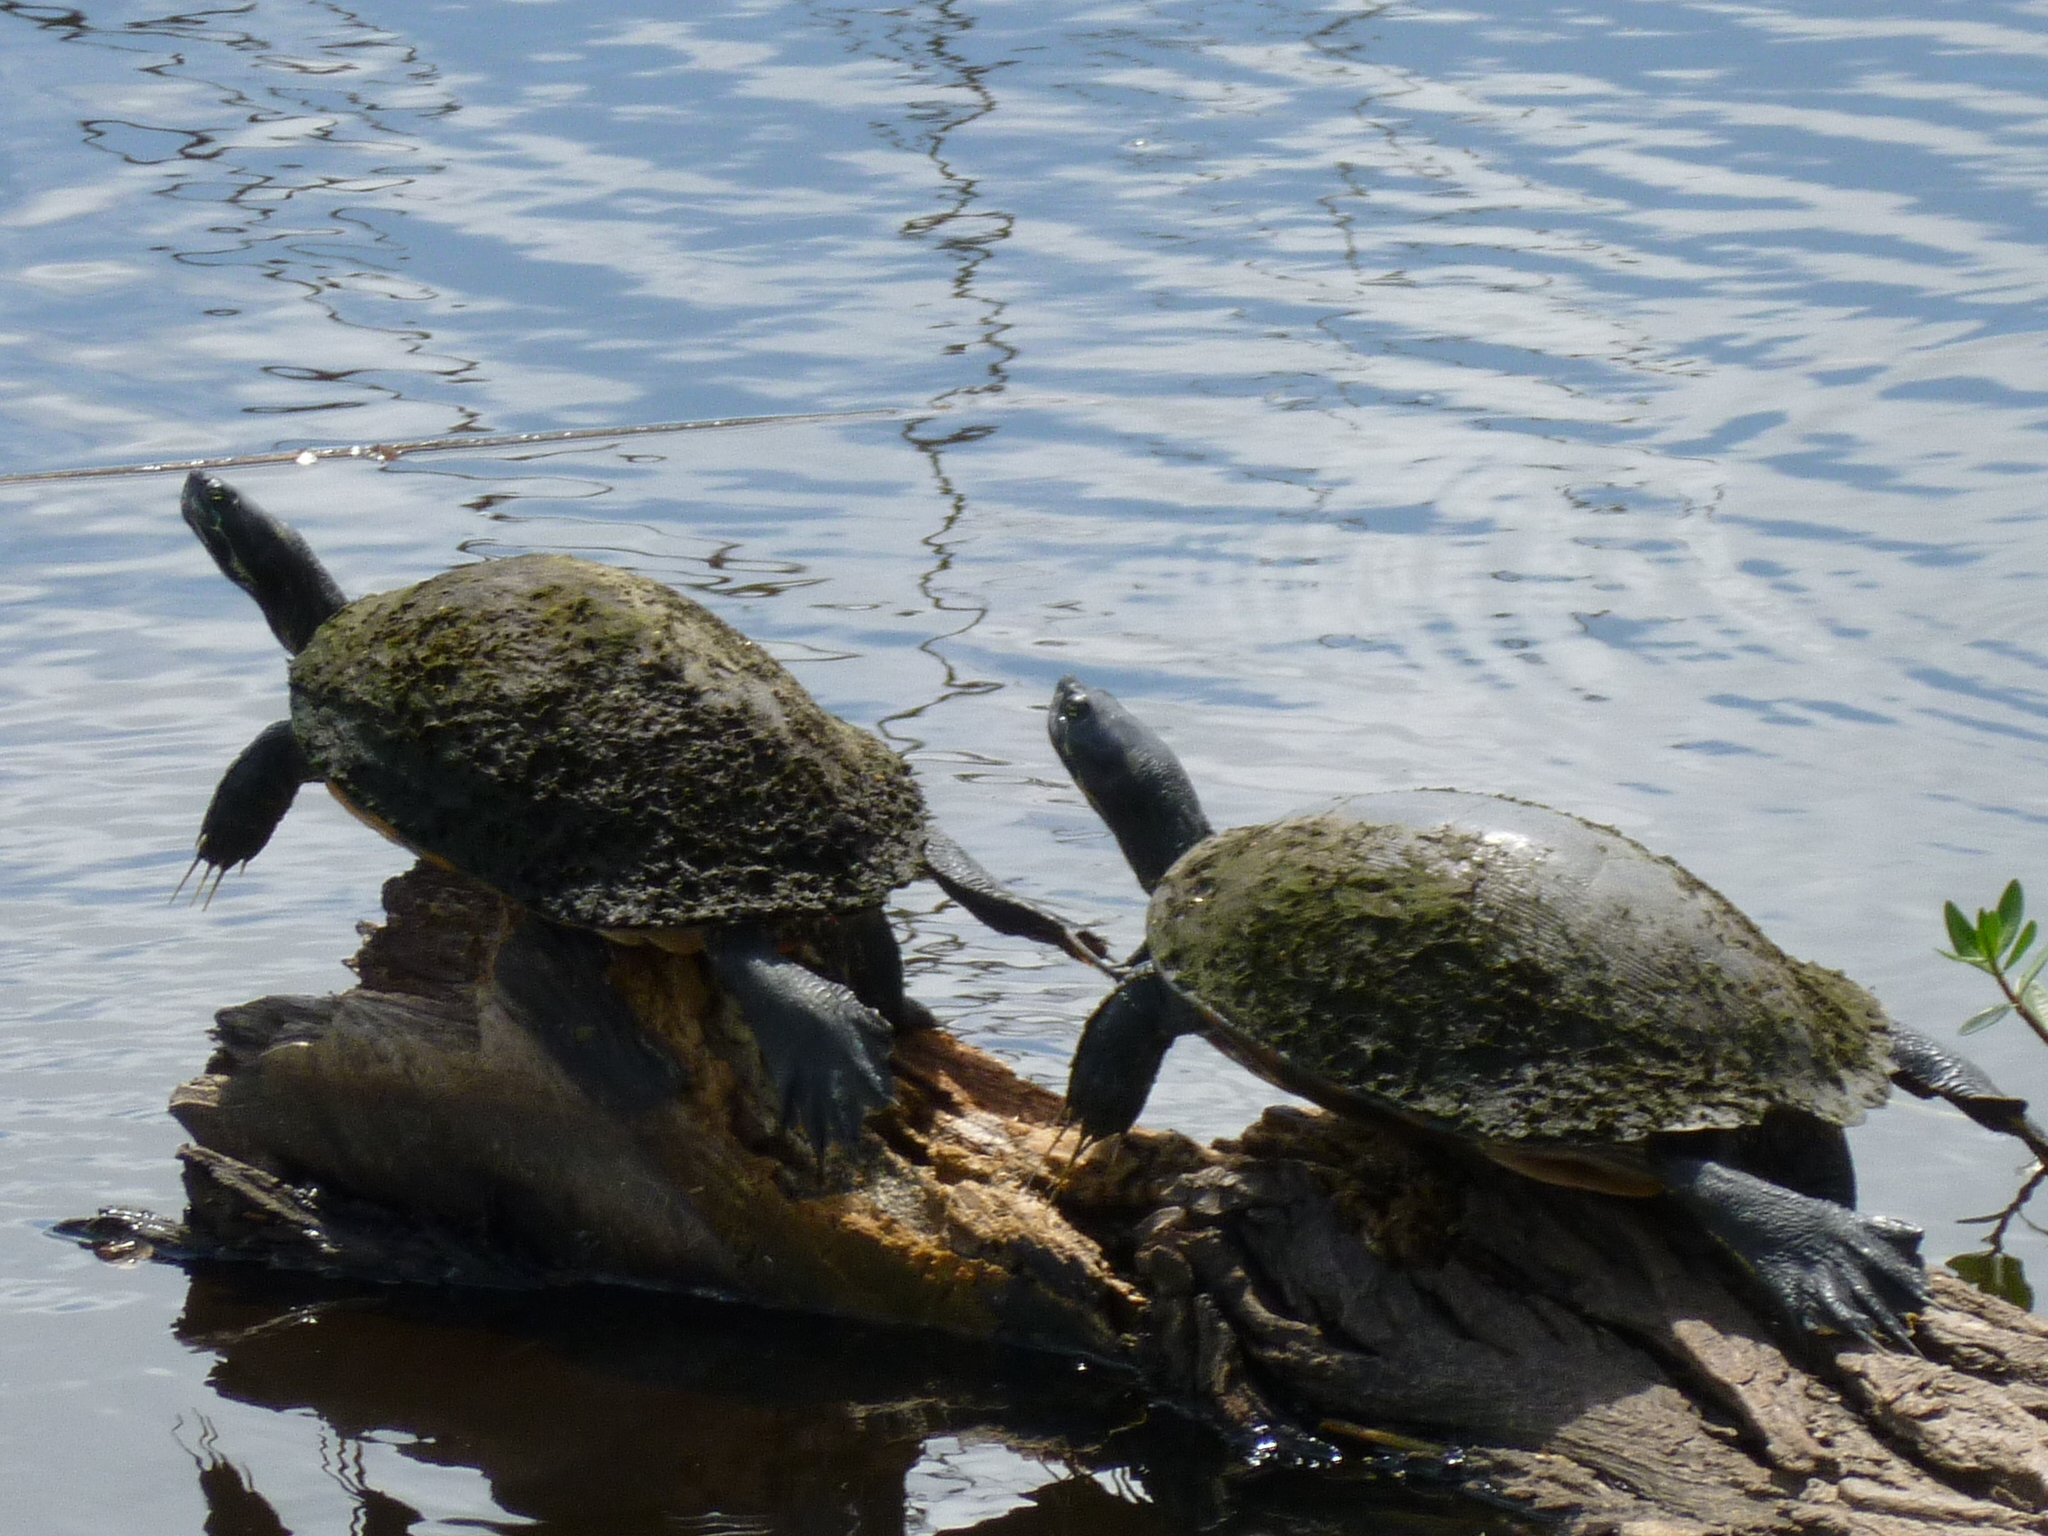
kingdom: Animalia
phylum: Chordata
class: Testudines
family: Emydidae
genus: Pseudemys
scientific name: Pseudemys concinna
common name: Eastern river cooter
